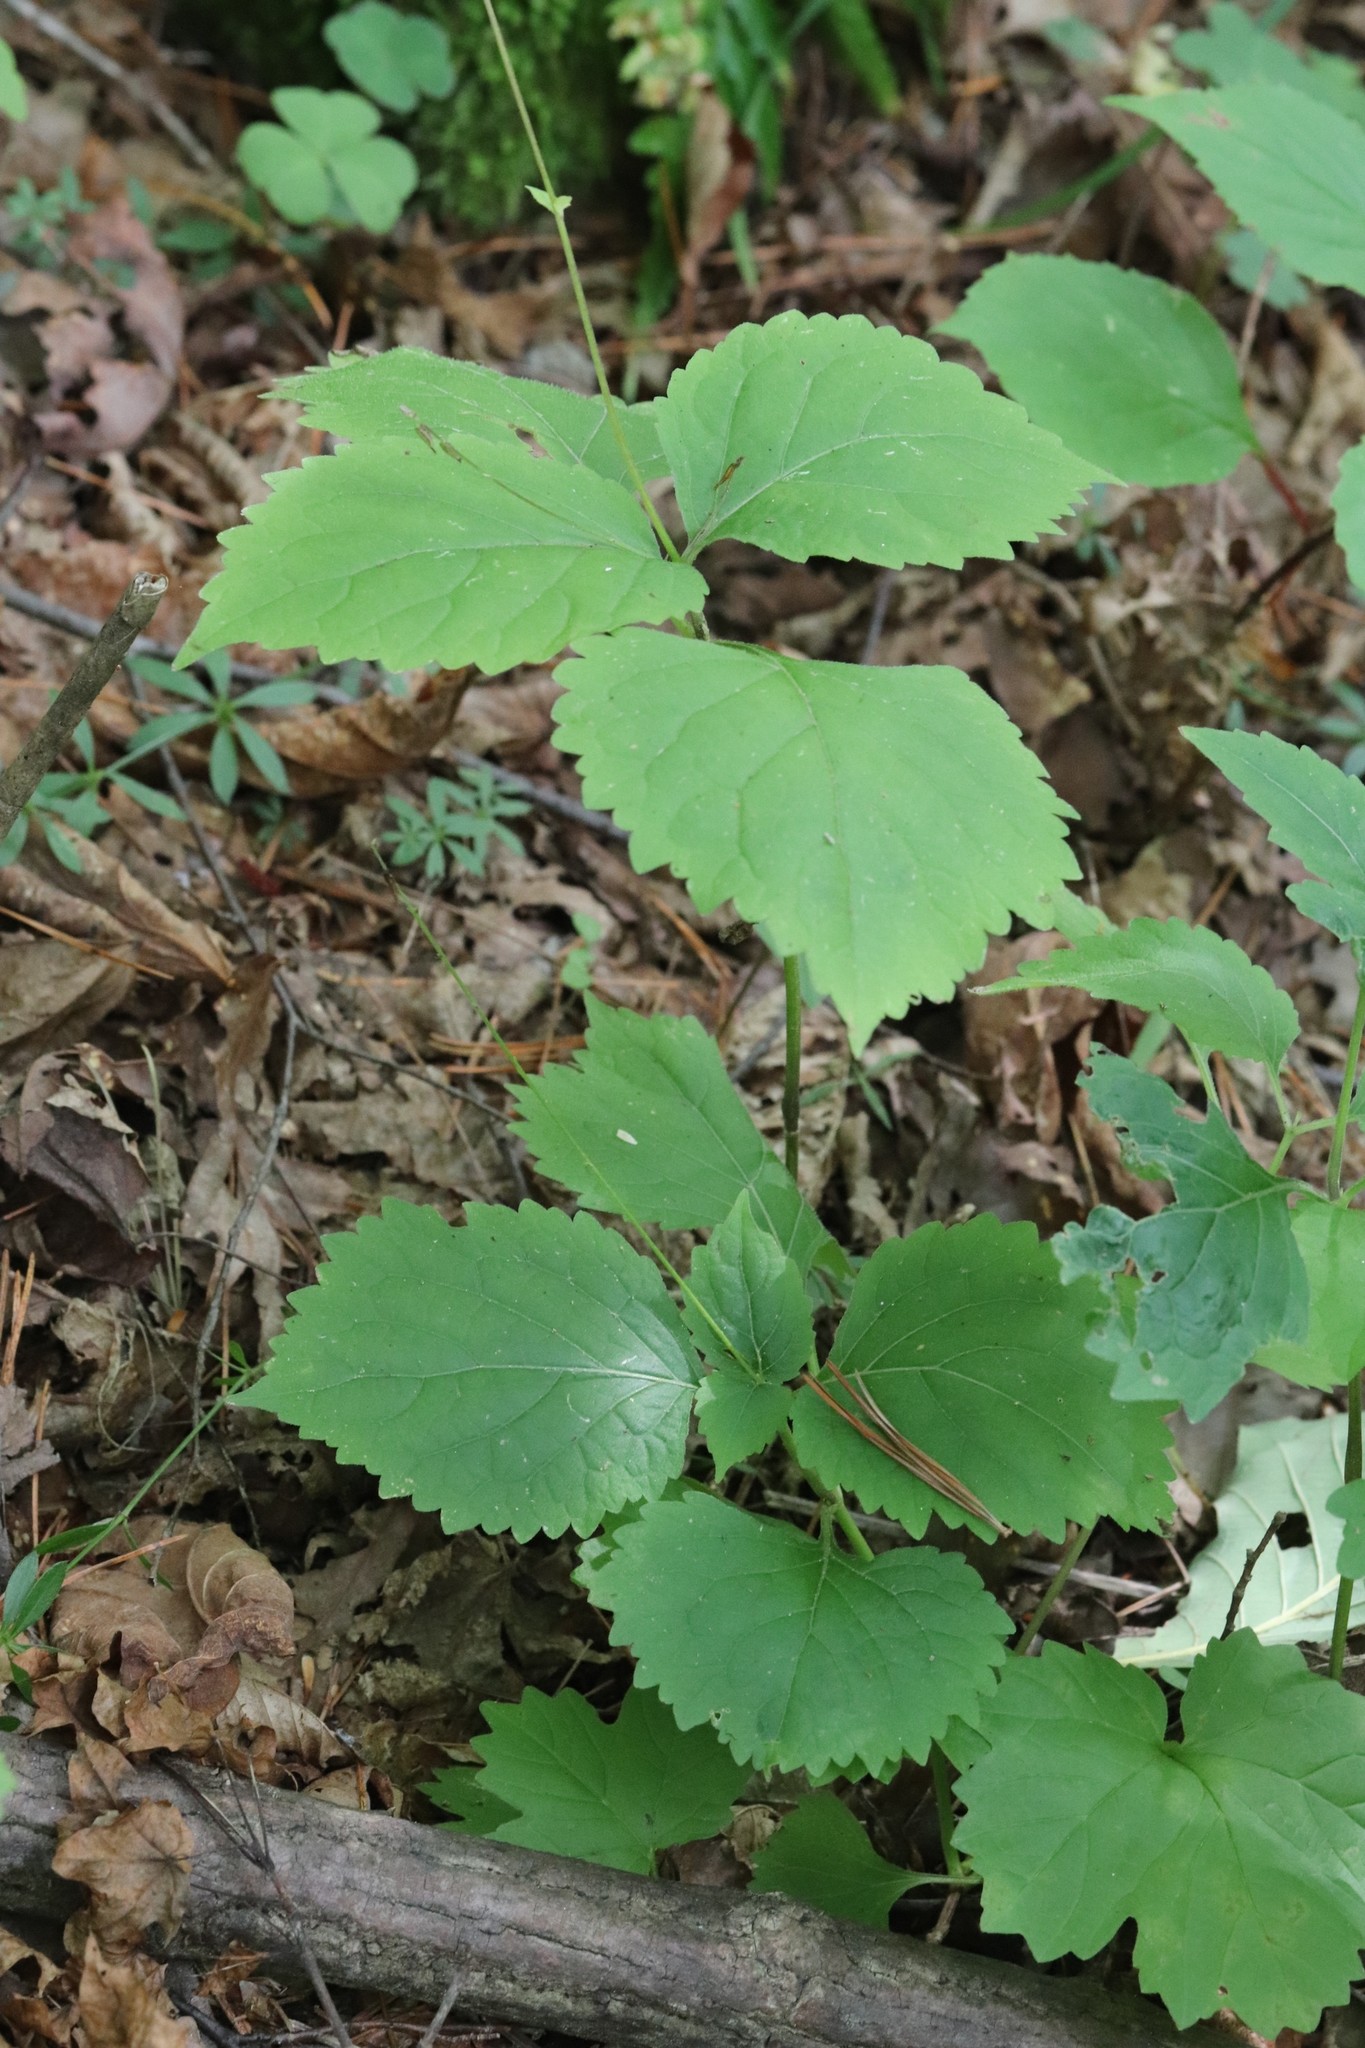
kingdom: Plantae
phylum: Tracheophyta
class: Magnoliopsida
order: Lamiales
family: Phrymaceae
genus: Phryma
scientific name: Phryma nana
